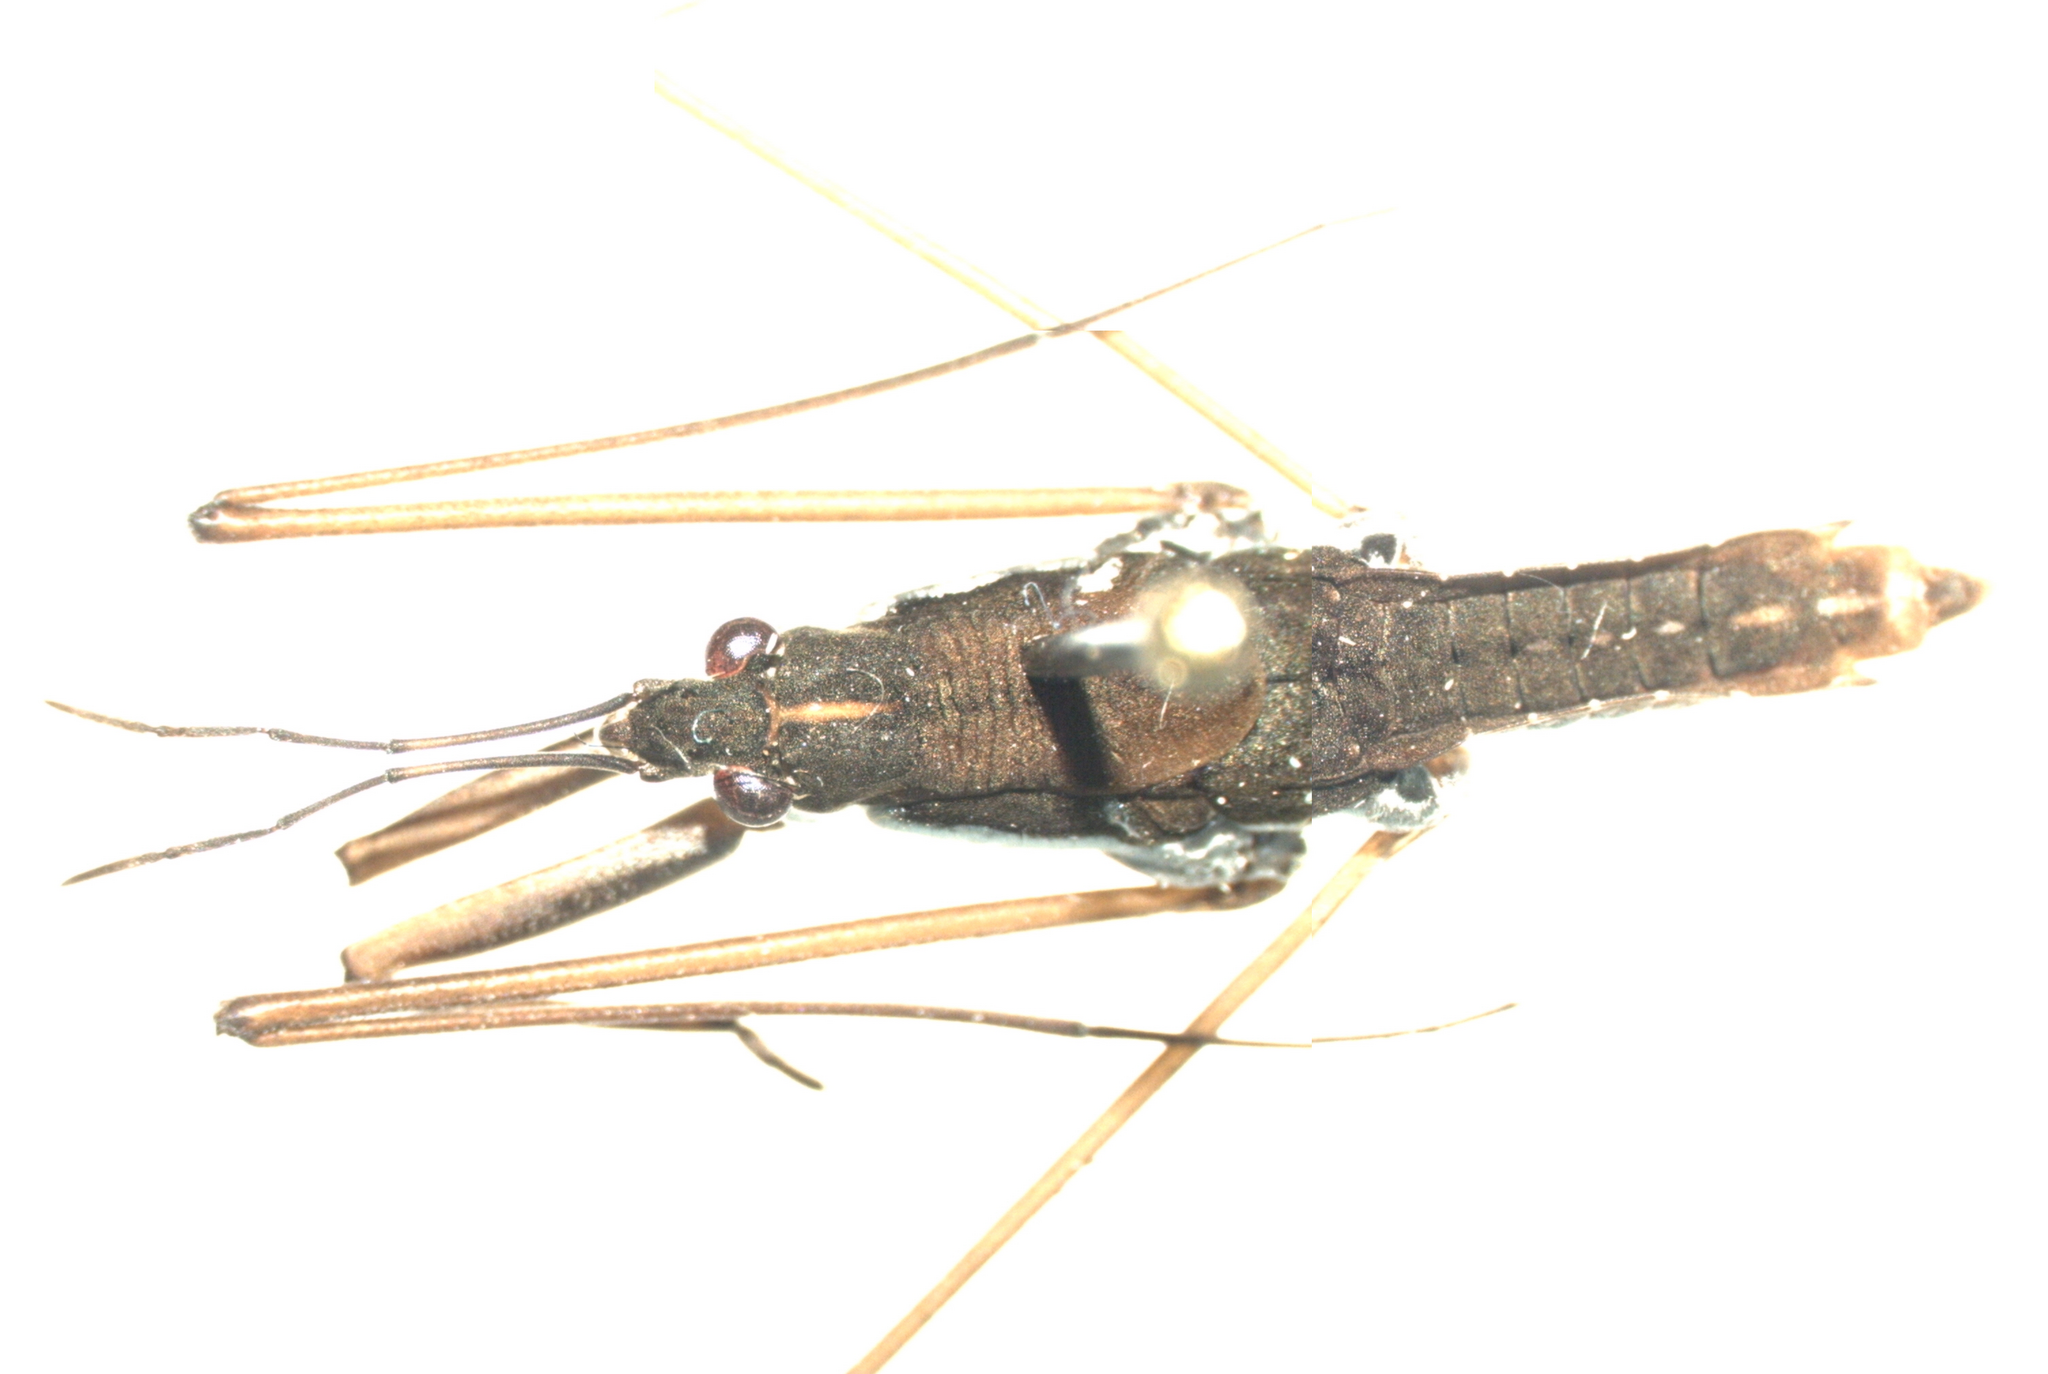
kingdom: Animalia
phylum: Arthropoda
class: Insecta
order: Hemiptera
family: Gerridae
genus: Aquarius
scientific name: Aquarius remigis
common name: Common water strider
